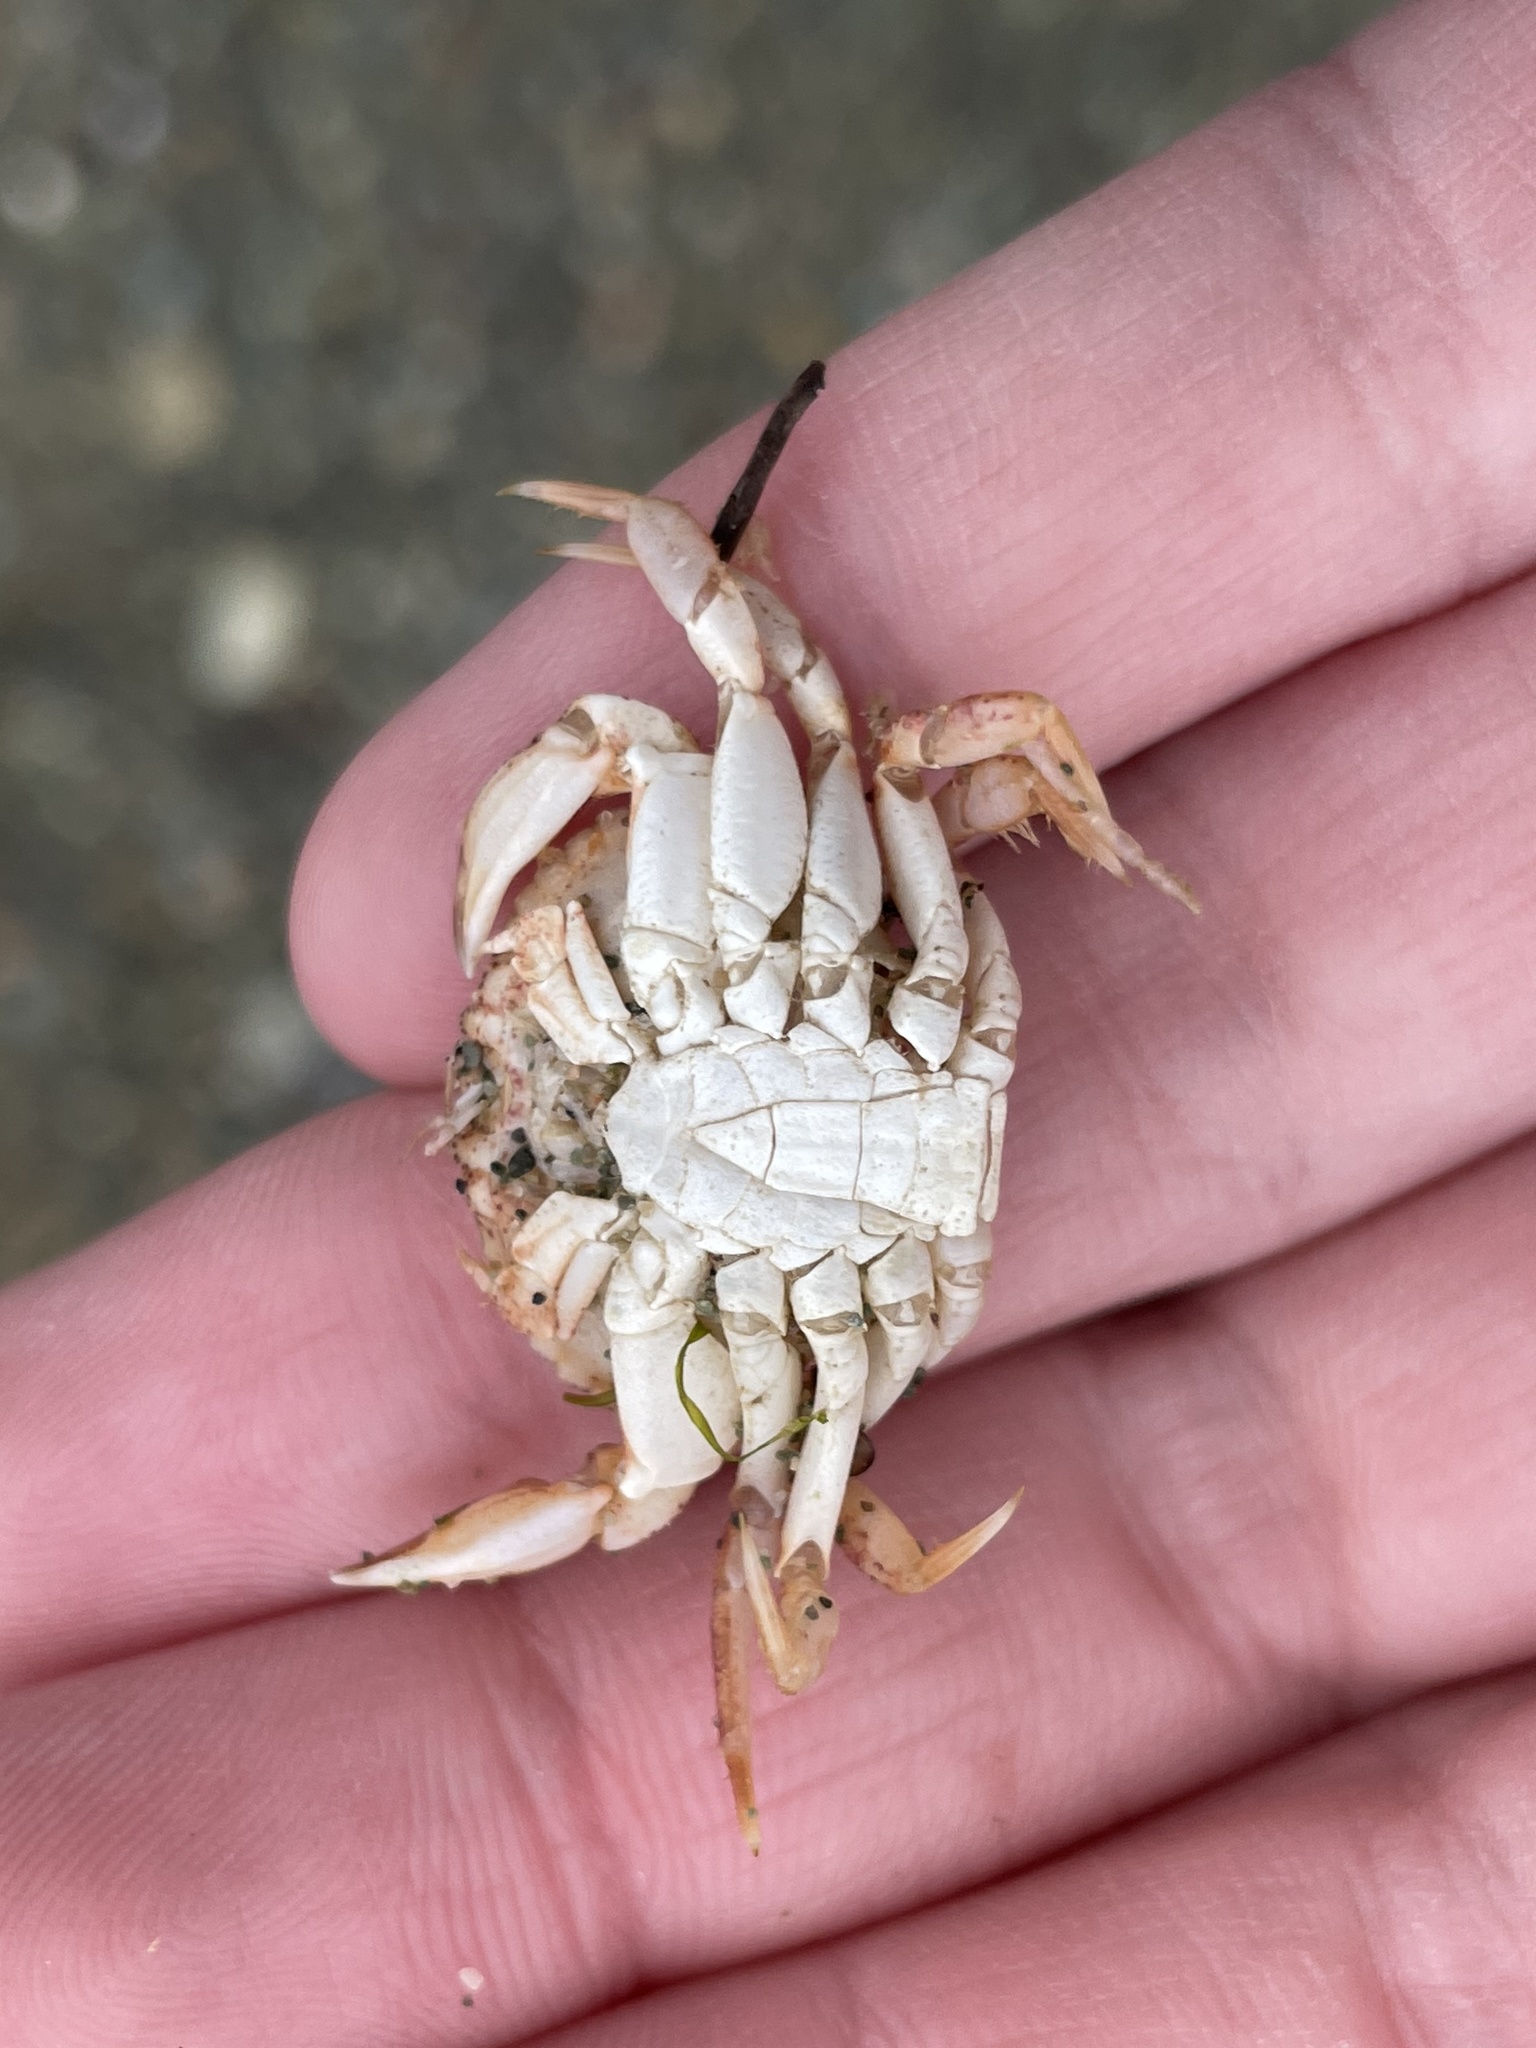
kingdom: Animalia
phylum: Arthropoda
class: Malacostraca
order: Decapoda
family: Cancridae
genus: Cancer
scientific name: Cancer irroratus
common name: Atlantic rock crab
